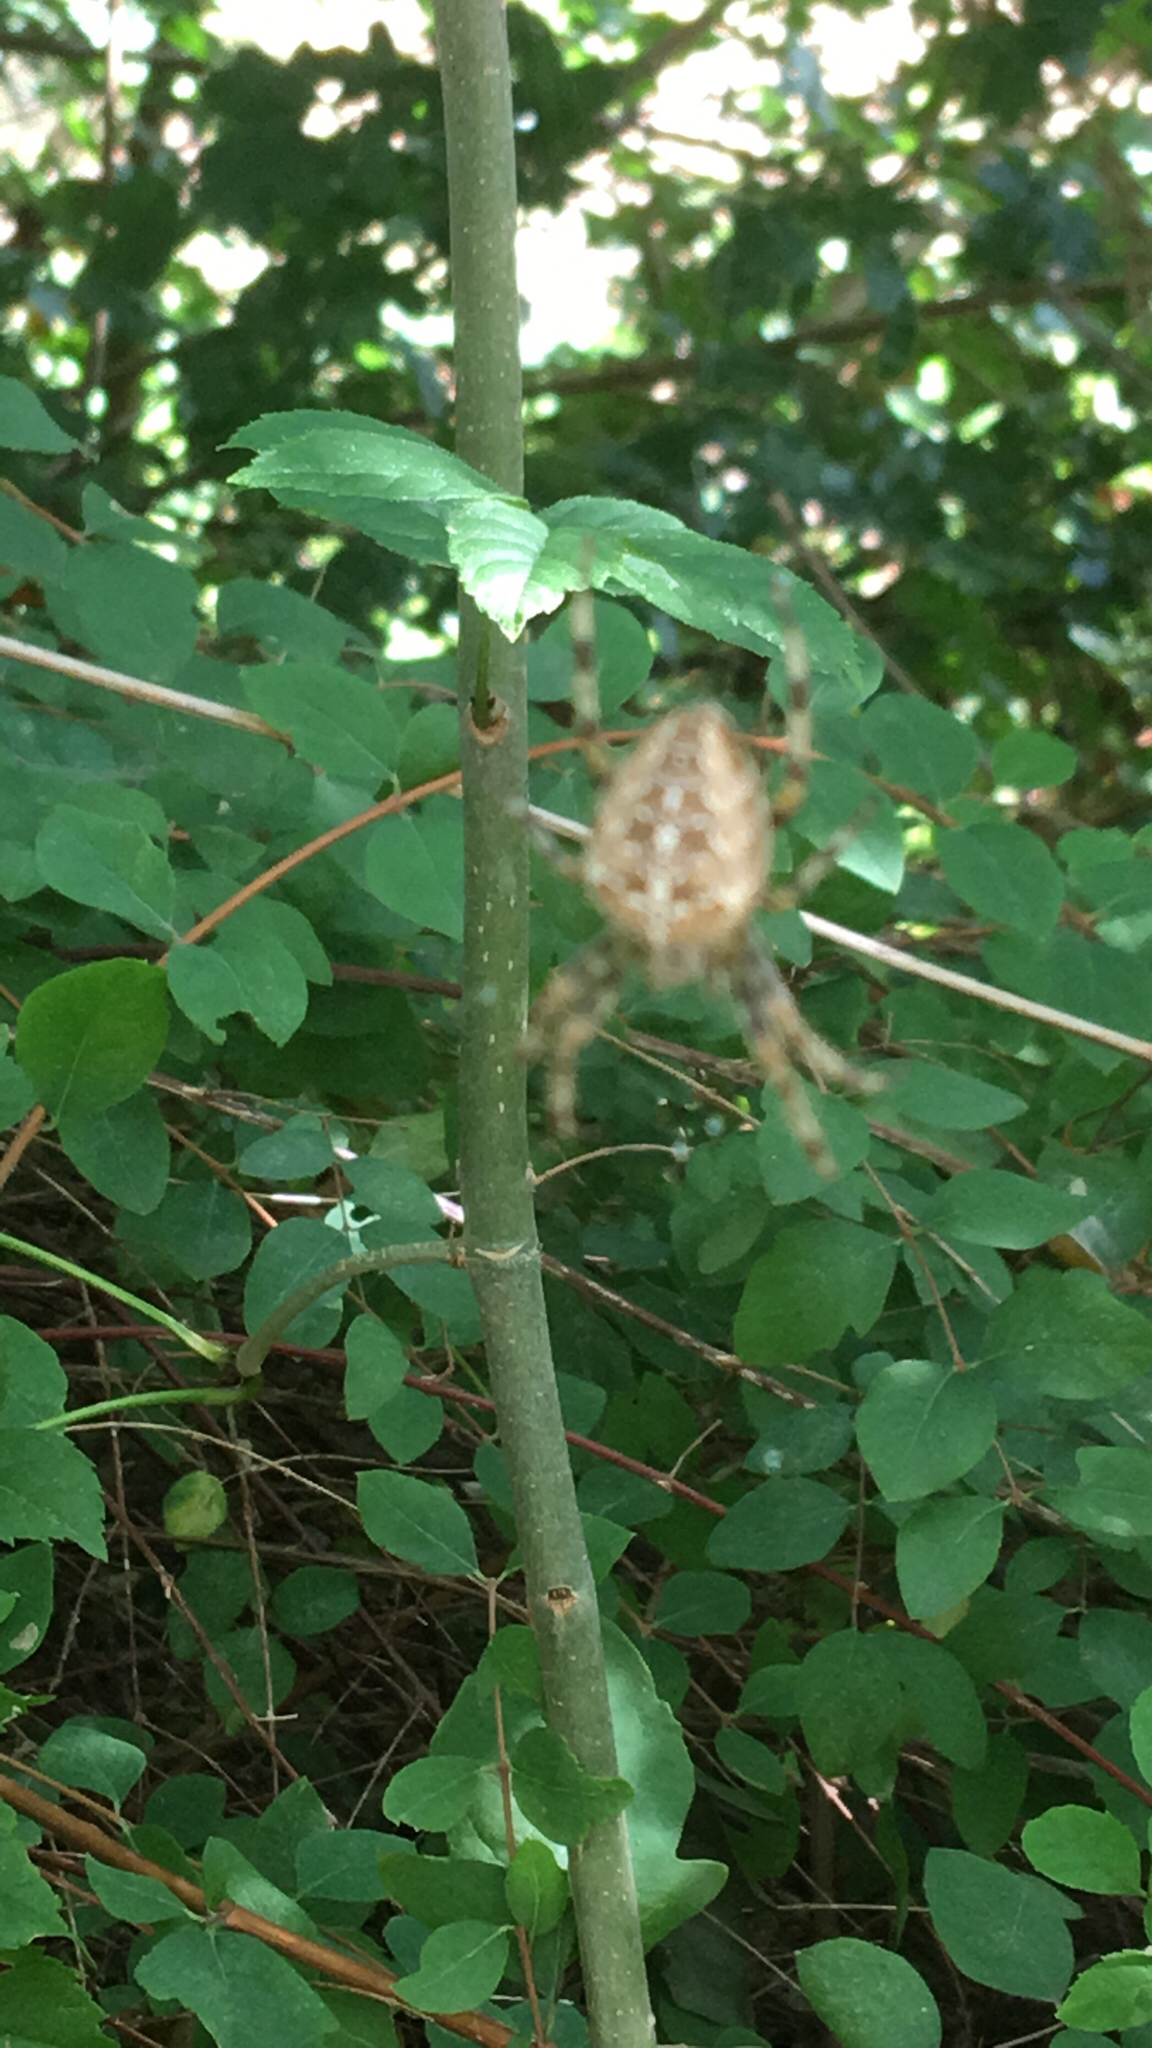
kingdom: Animalia
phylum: Arthropoda
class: Arachnida
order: Araneae
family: Araneidae
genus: Araneus
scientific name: Araneus diadematus
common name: Cross orbweaver
